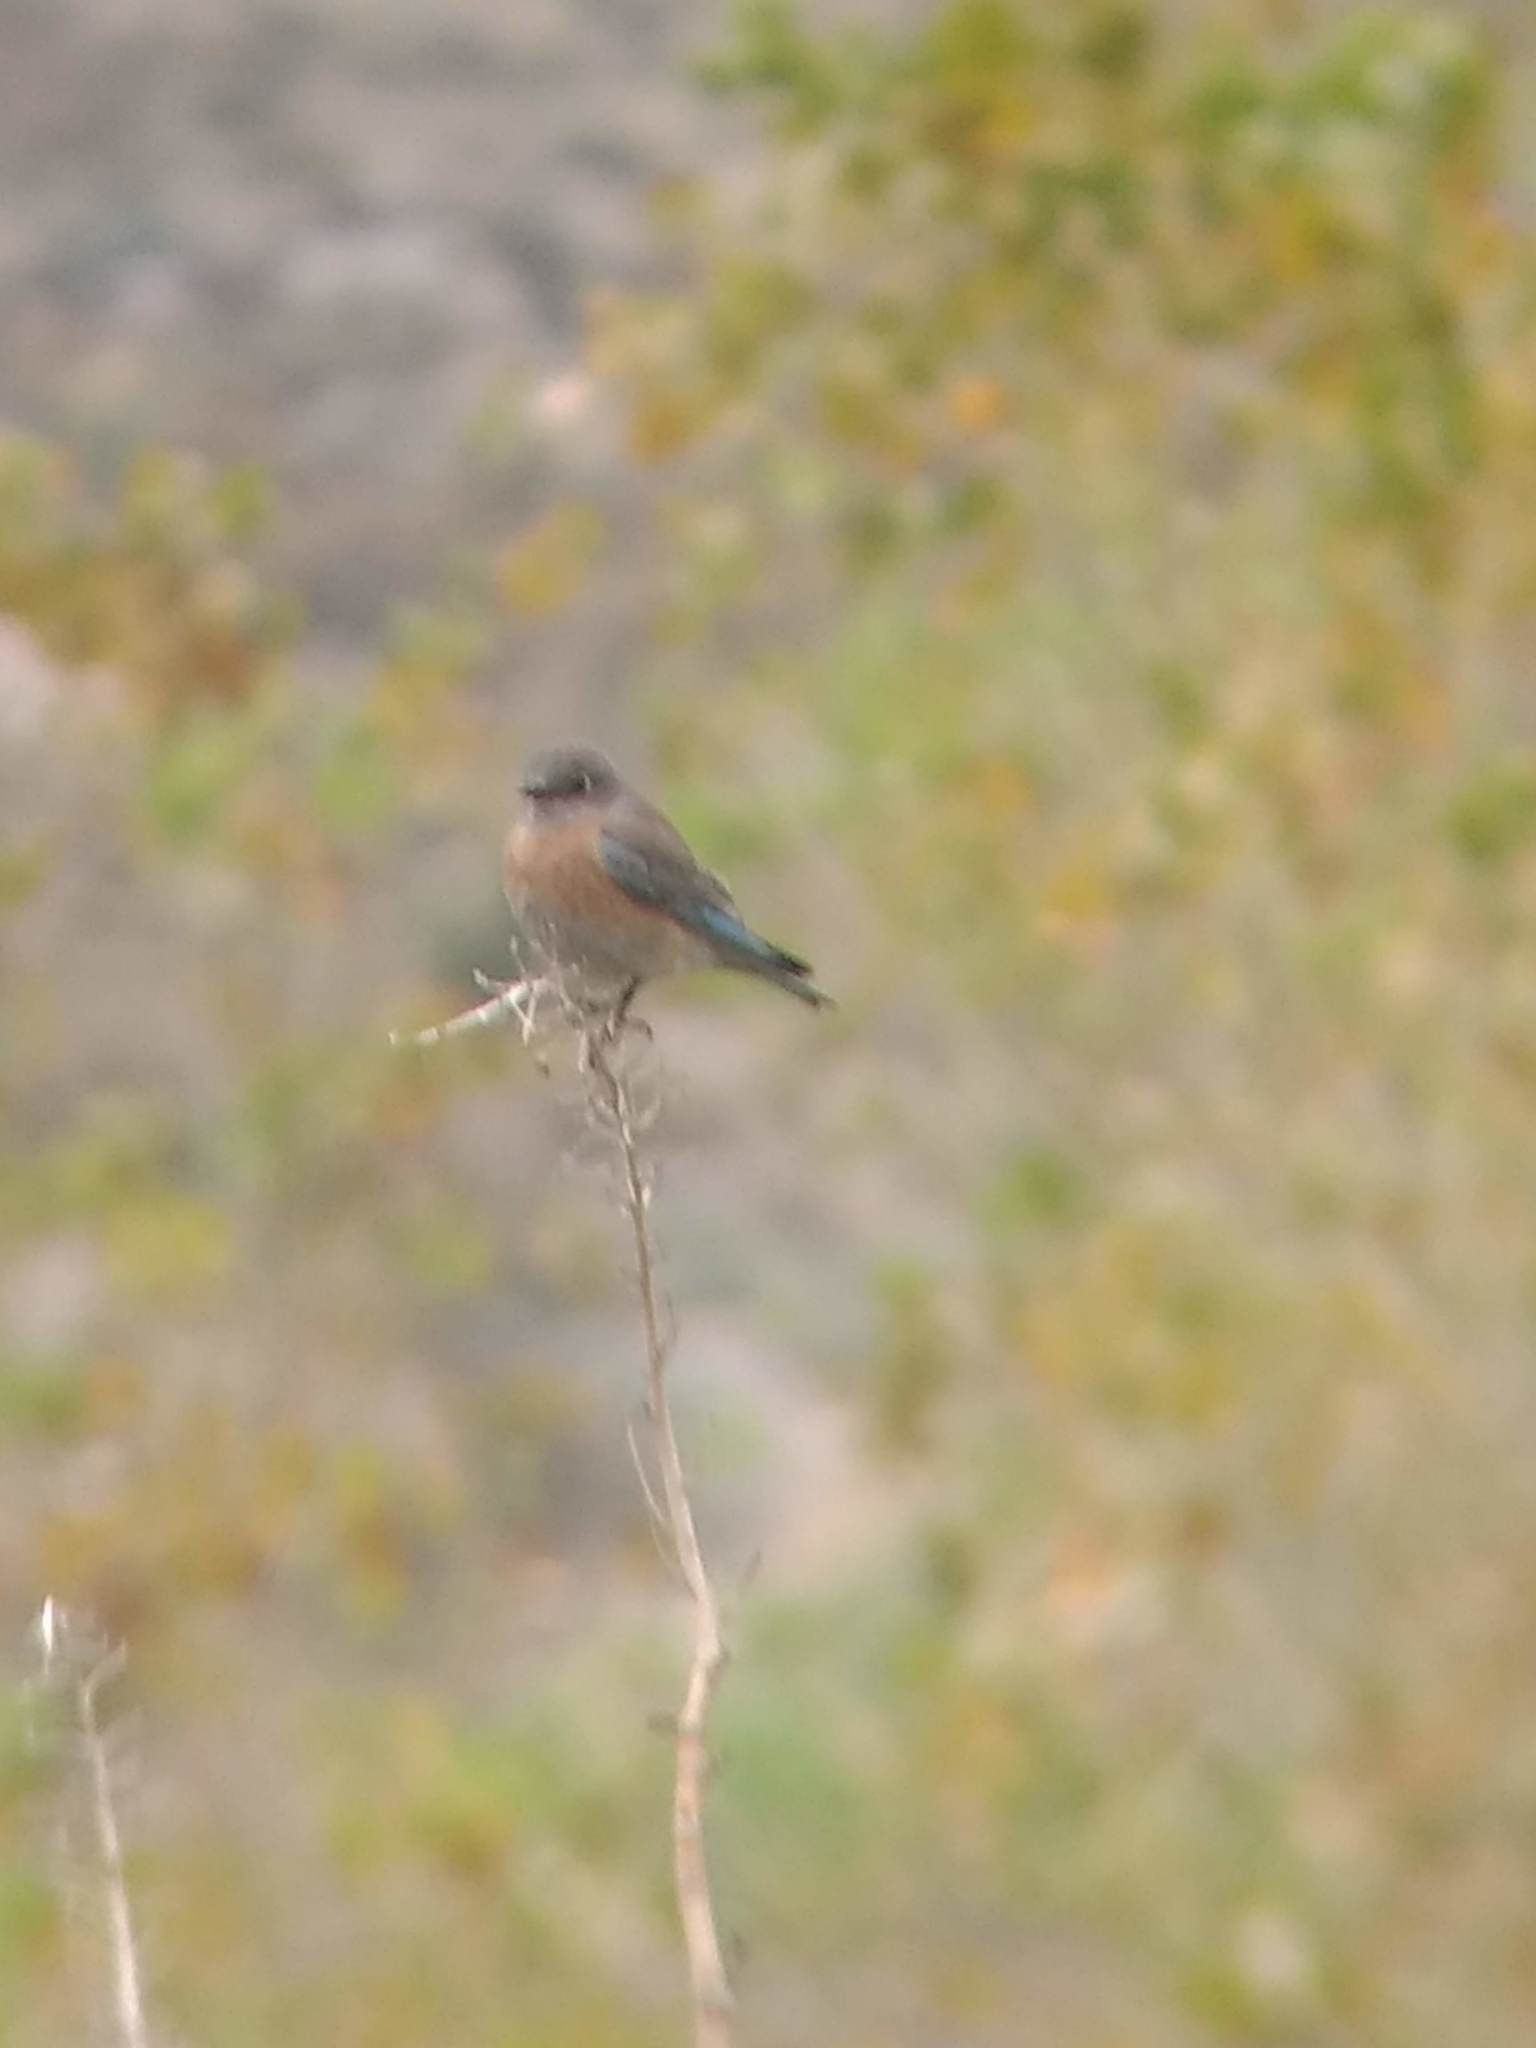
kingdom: Animalia
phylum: Chordata
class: Aves
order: Passeriformes
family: Turdidae
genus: Sialia
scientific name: Sialia mexicana
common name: Western bluebird
